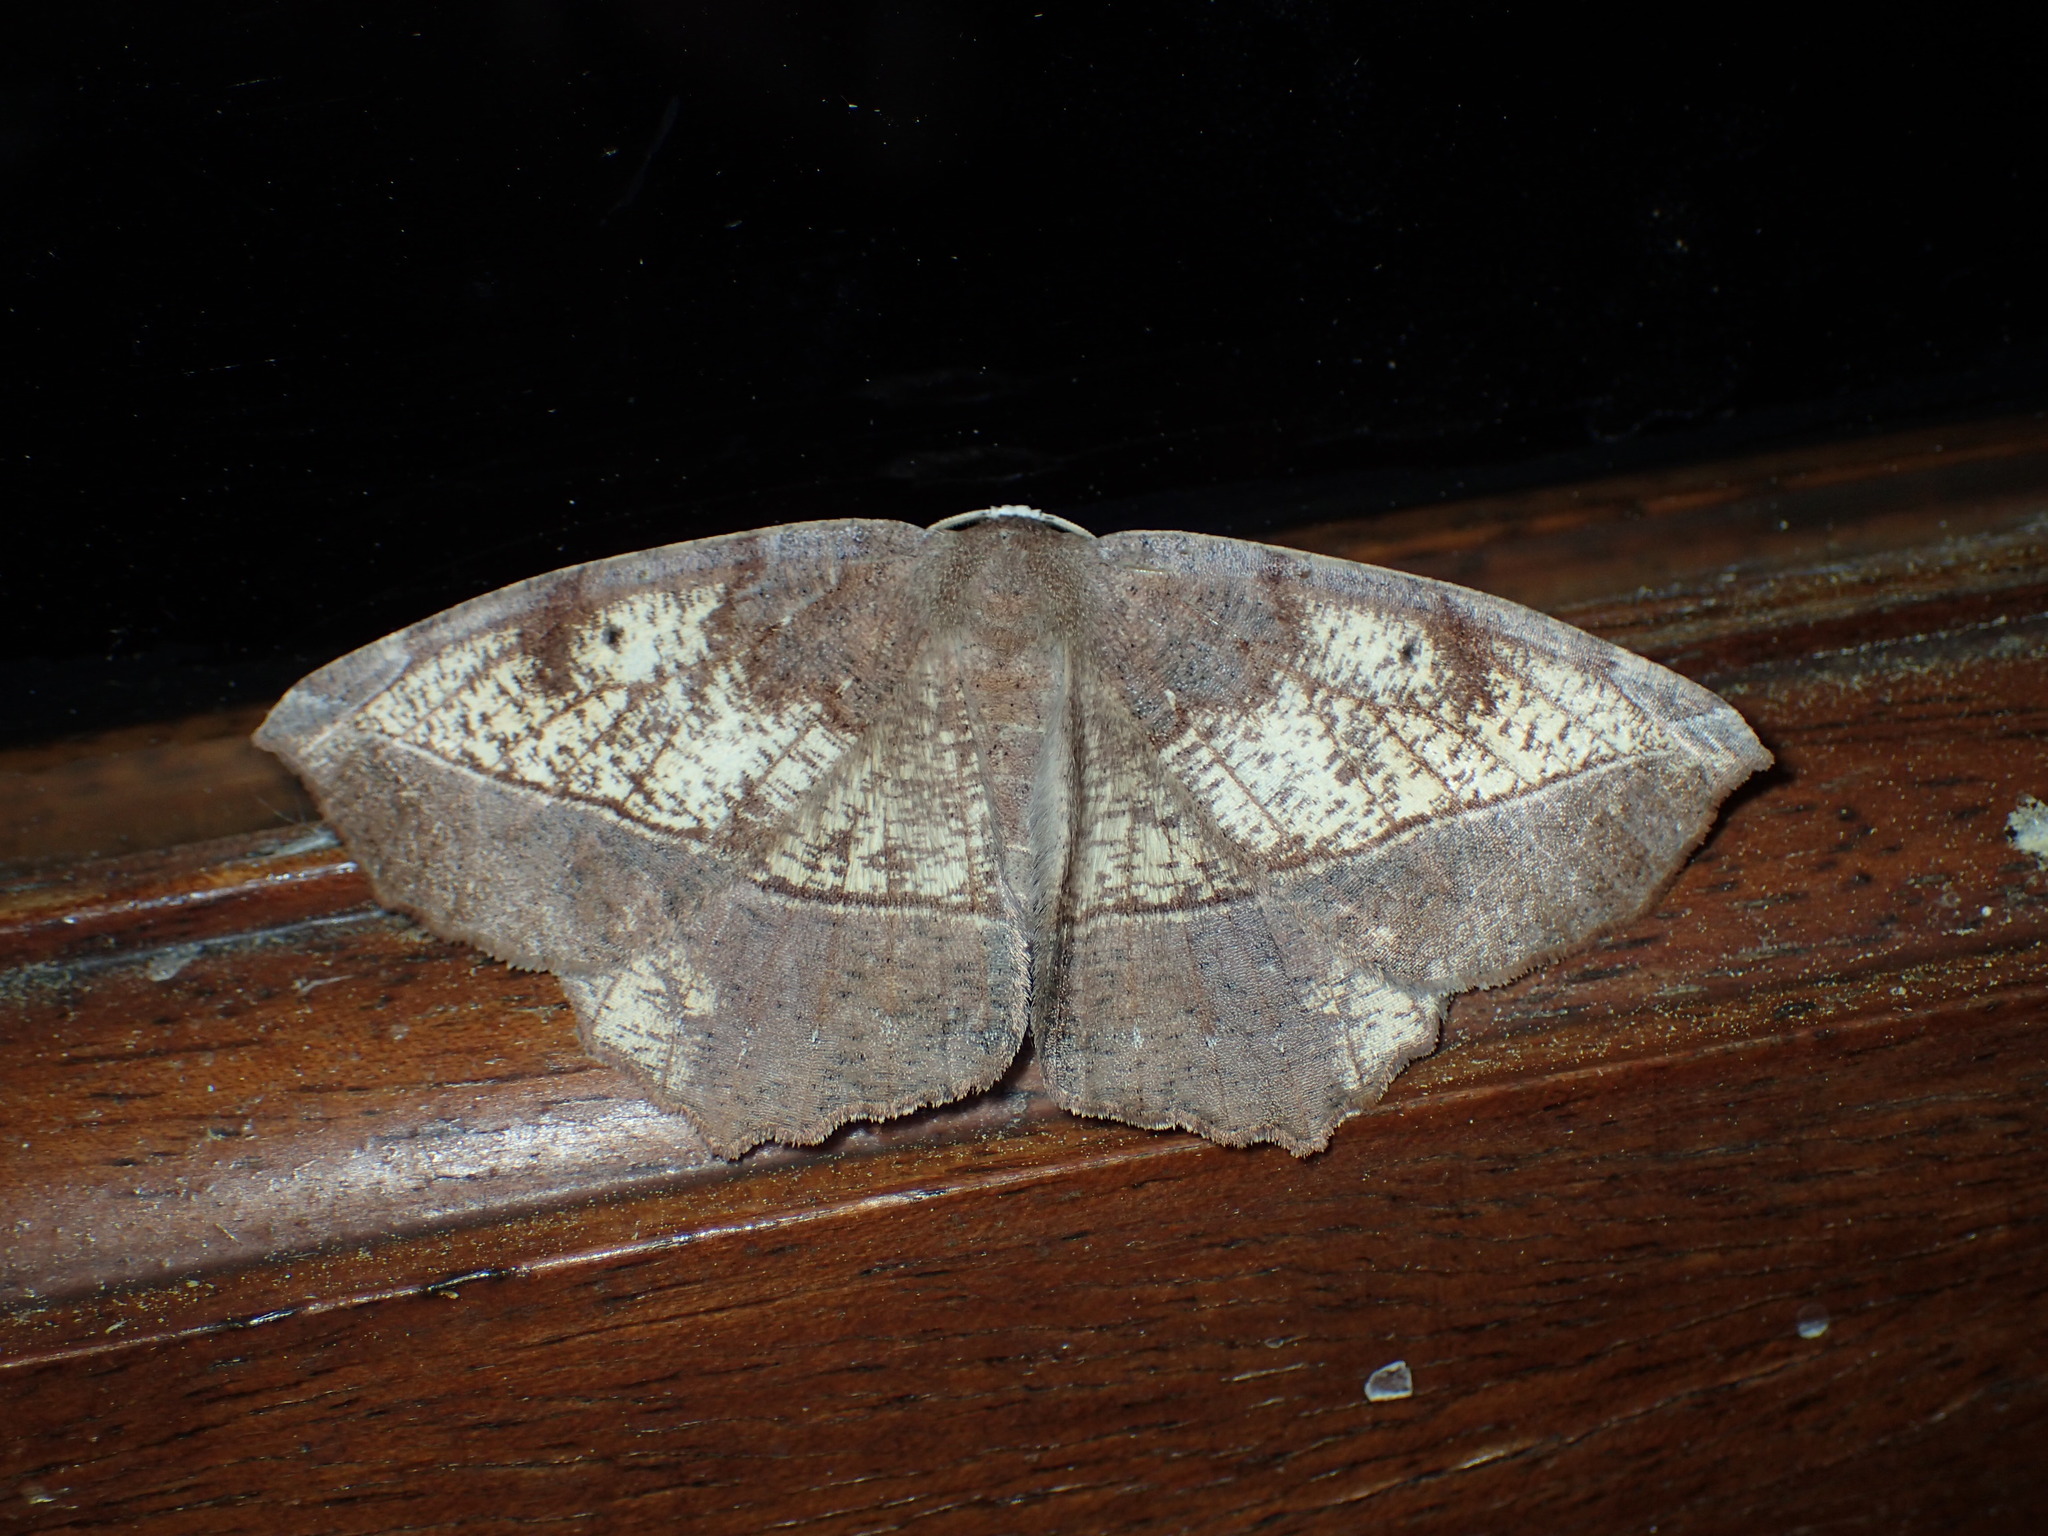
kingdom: Animalia
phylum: Arthropoda
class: Insecta
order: Lepidoptera
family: Geometridae
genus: Eutrapela
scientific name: Eutrapela clemataria
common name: Curved-toothed geometer
